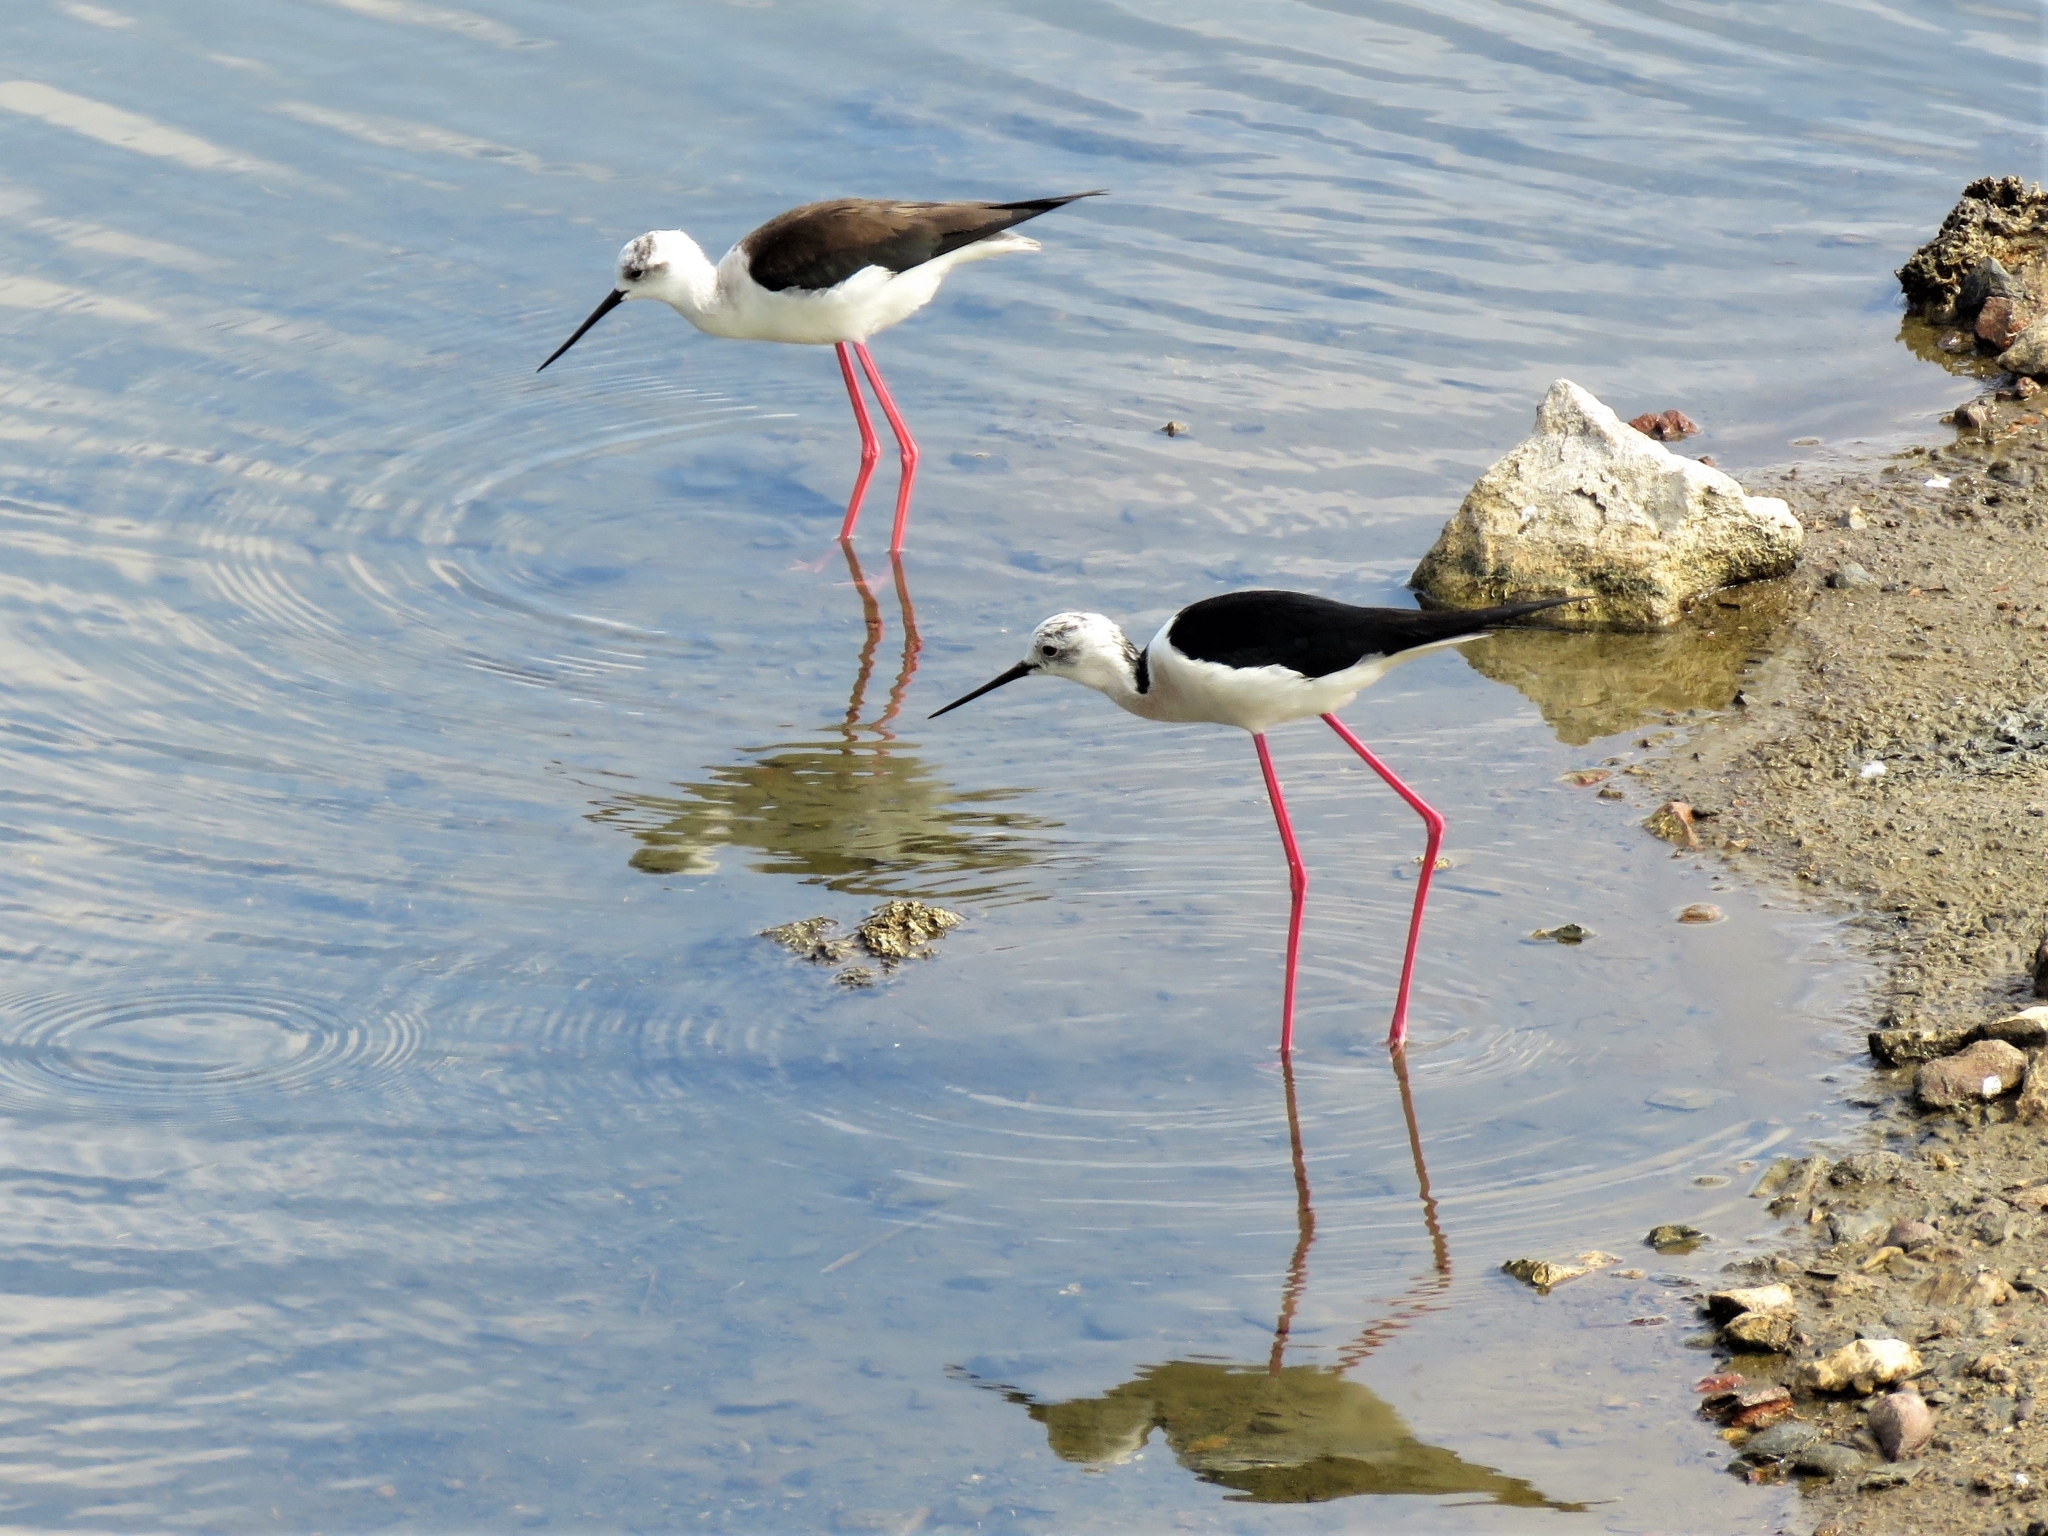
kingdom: Animalia
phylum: Chordata
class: Aves
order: Charadriiformes
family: Recurvirostridae
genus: Himantopus
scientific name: Himantopus himantopus
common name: Black-winged stilt
